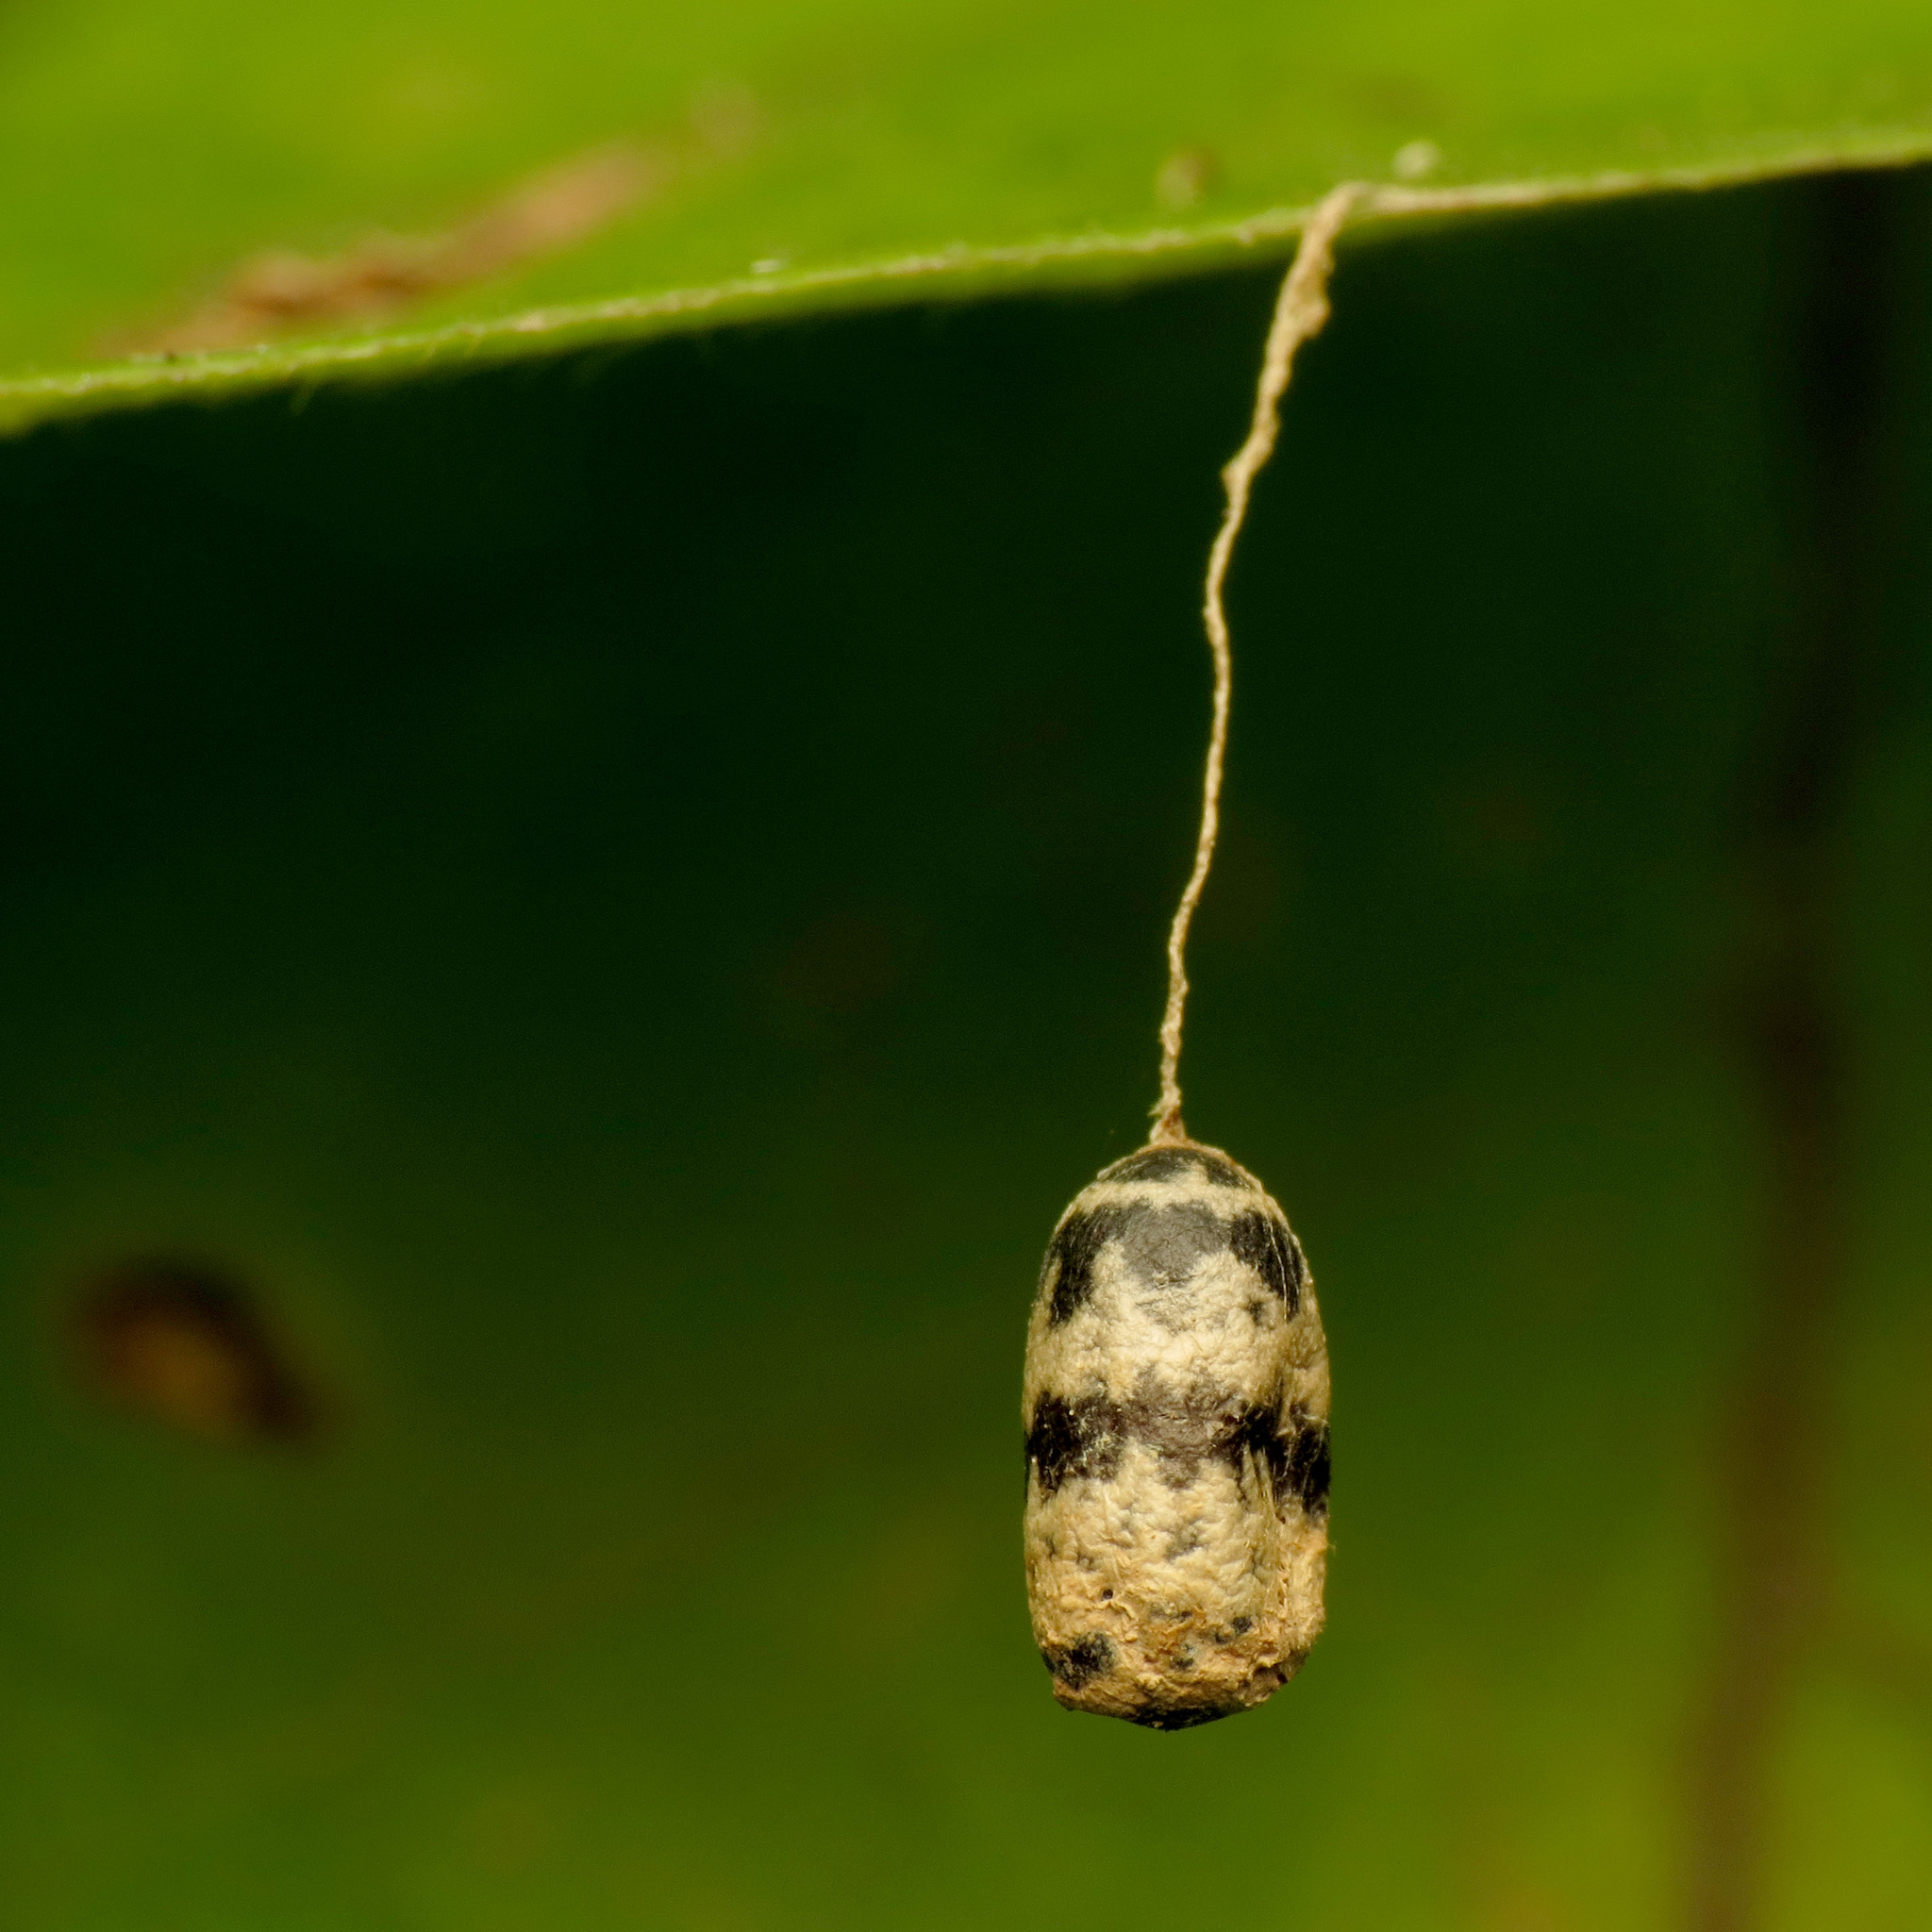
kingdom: Animalia
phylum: Arthropoda
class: Insecta
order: Hymenoptera
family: Ichneumonidae
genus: Charops
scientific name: Charops annulipes
